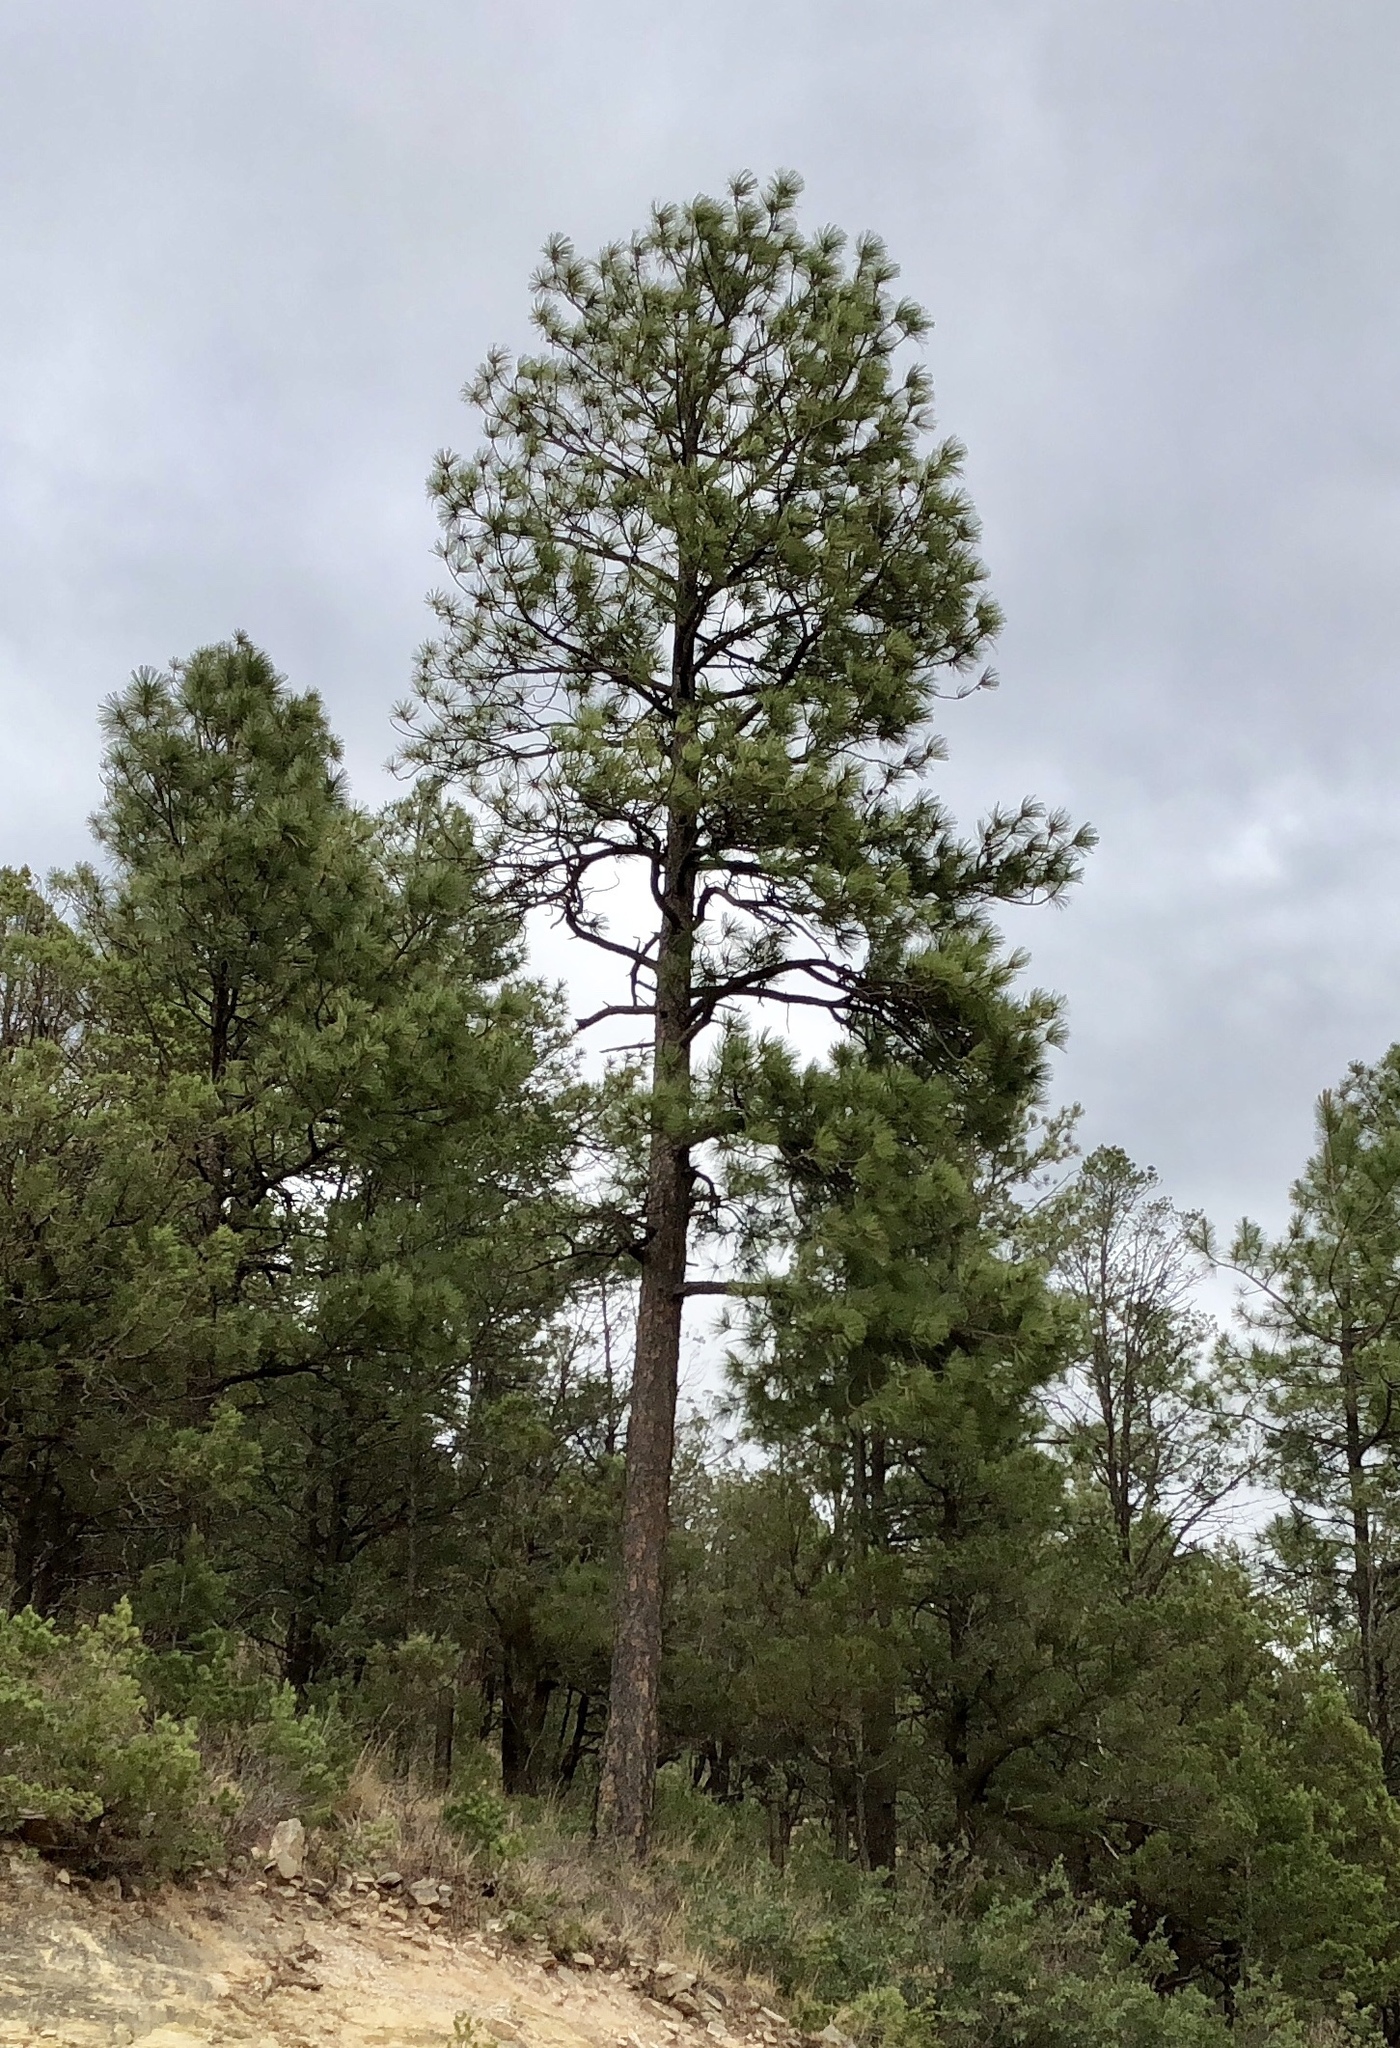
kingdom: Plantae
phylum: Tracheophyta
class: Pinopsida
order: Pinales
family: Pinaceae
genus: Pinus
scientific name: Pinus ponderosa
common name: Western yellow-pine
